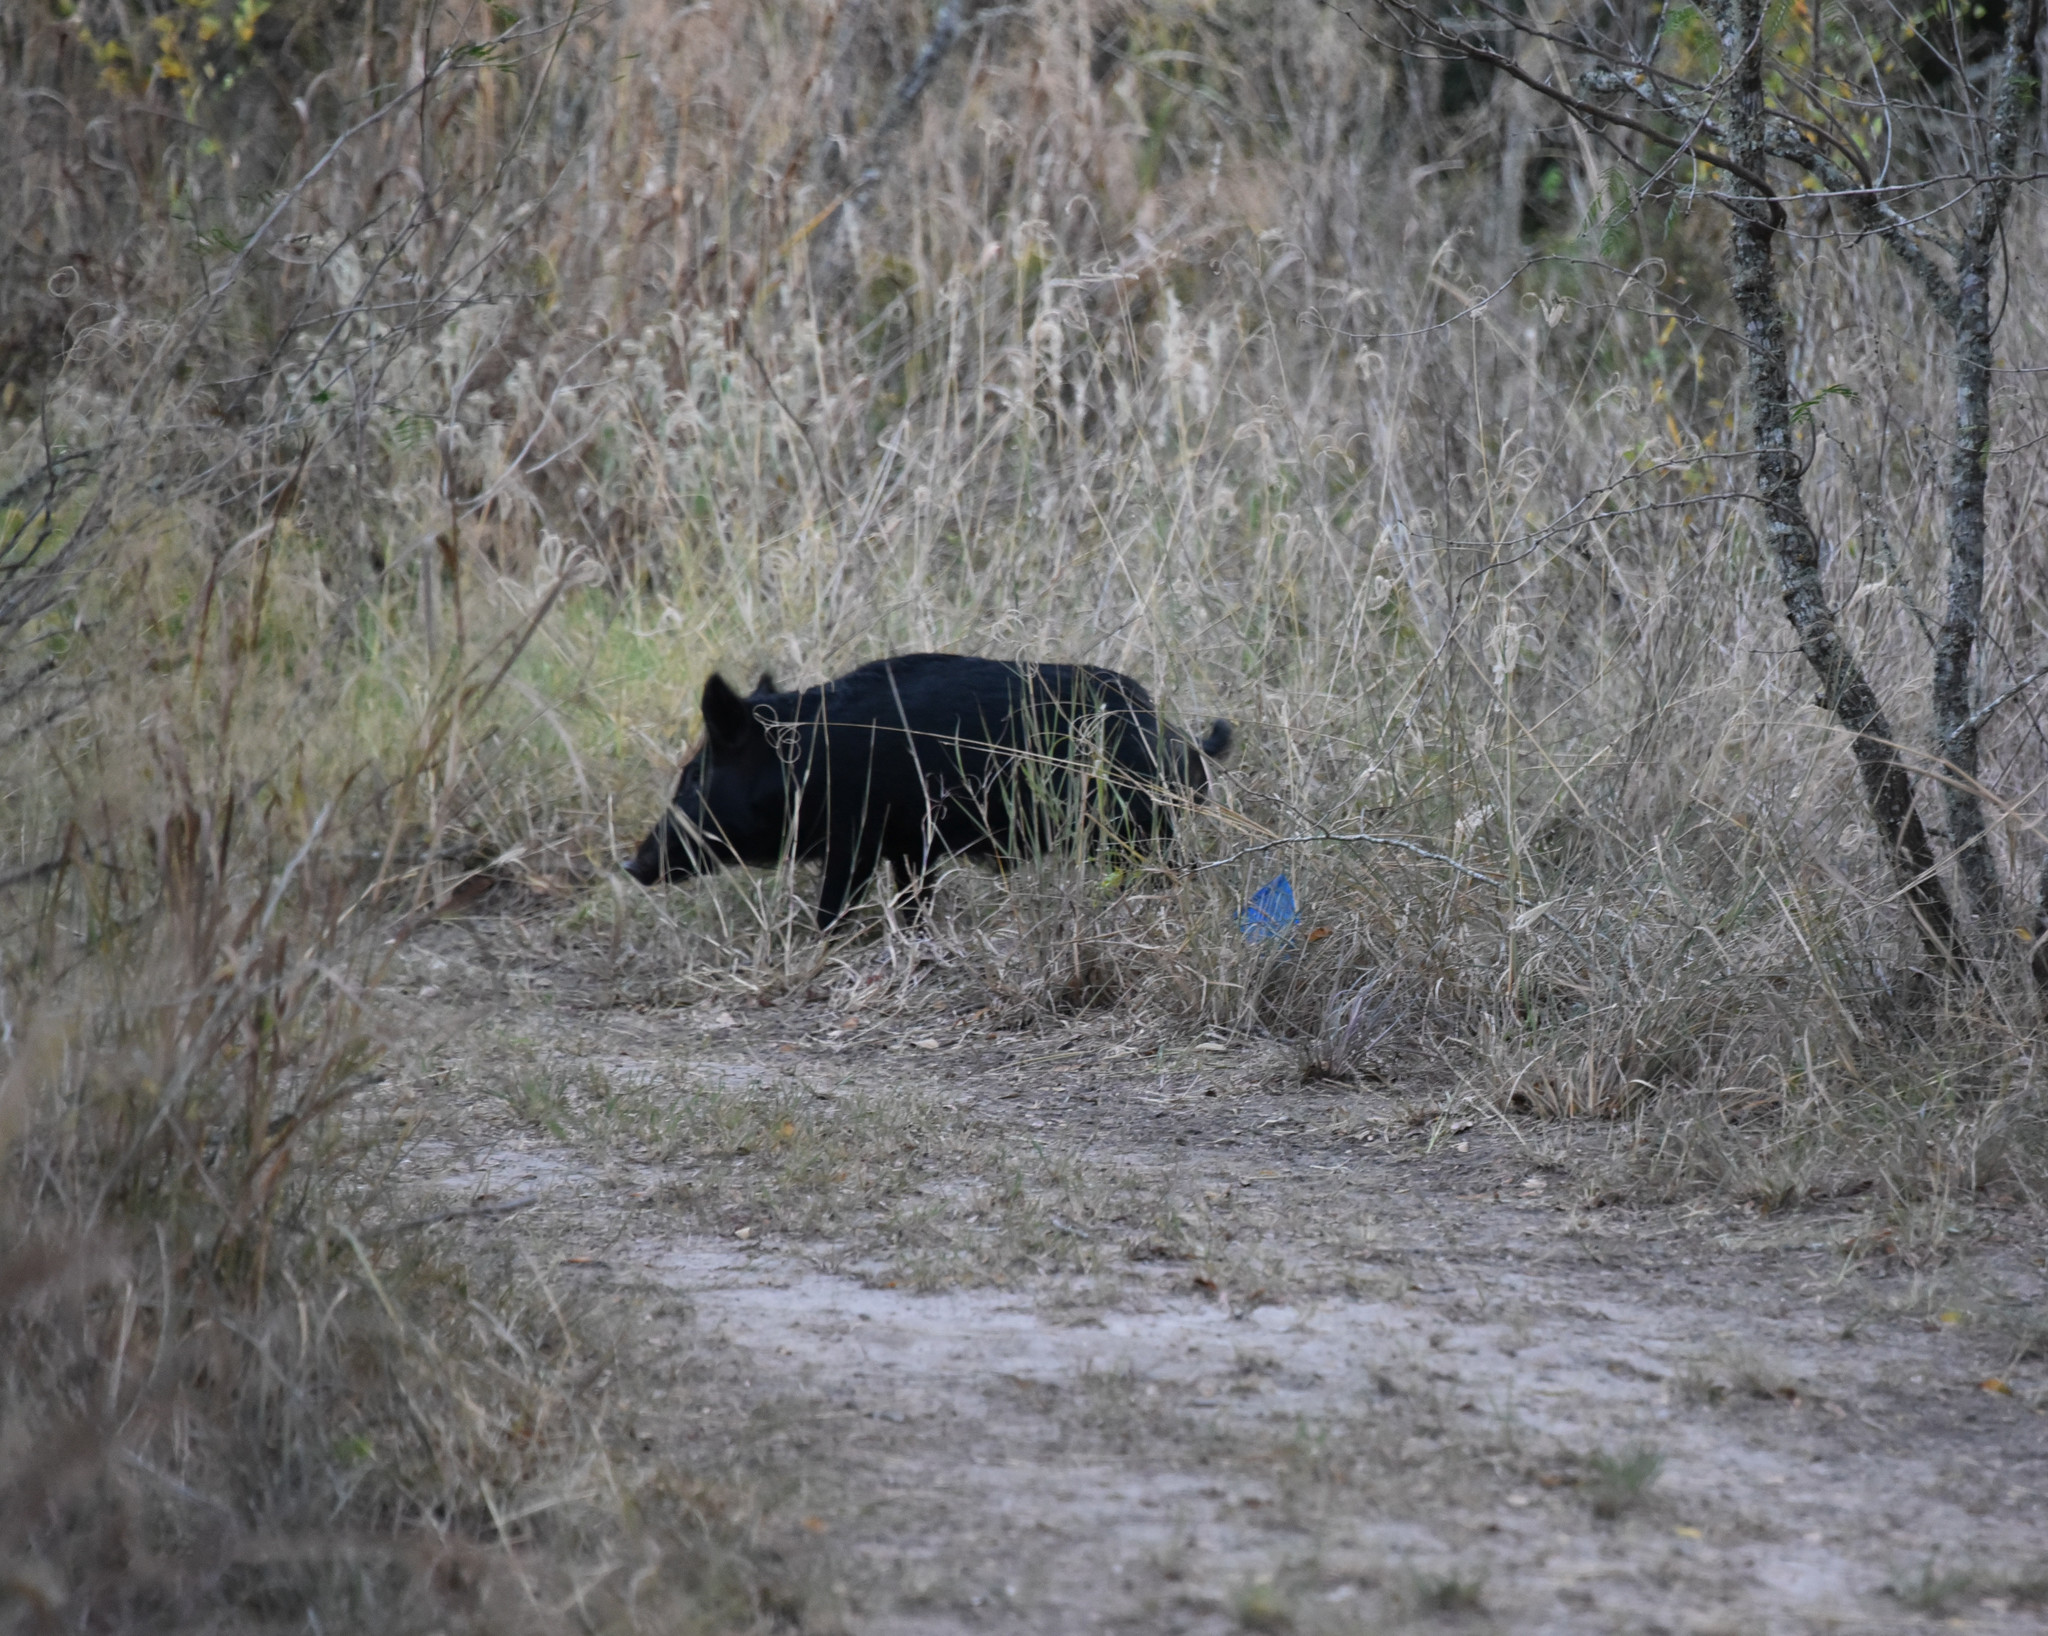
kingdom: Animalia
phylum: Chordata
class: Mammalia
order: Artiodactyla
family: Suidae
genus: Sus
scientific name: Sus scrofa
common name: Wild boar
